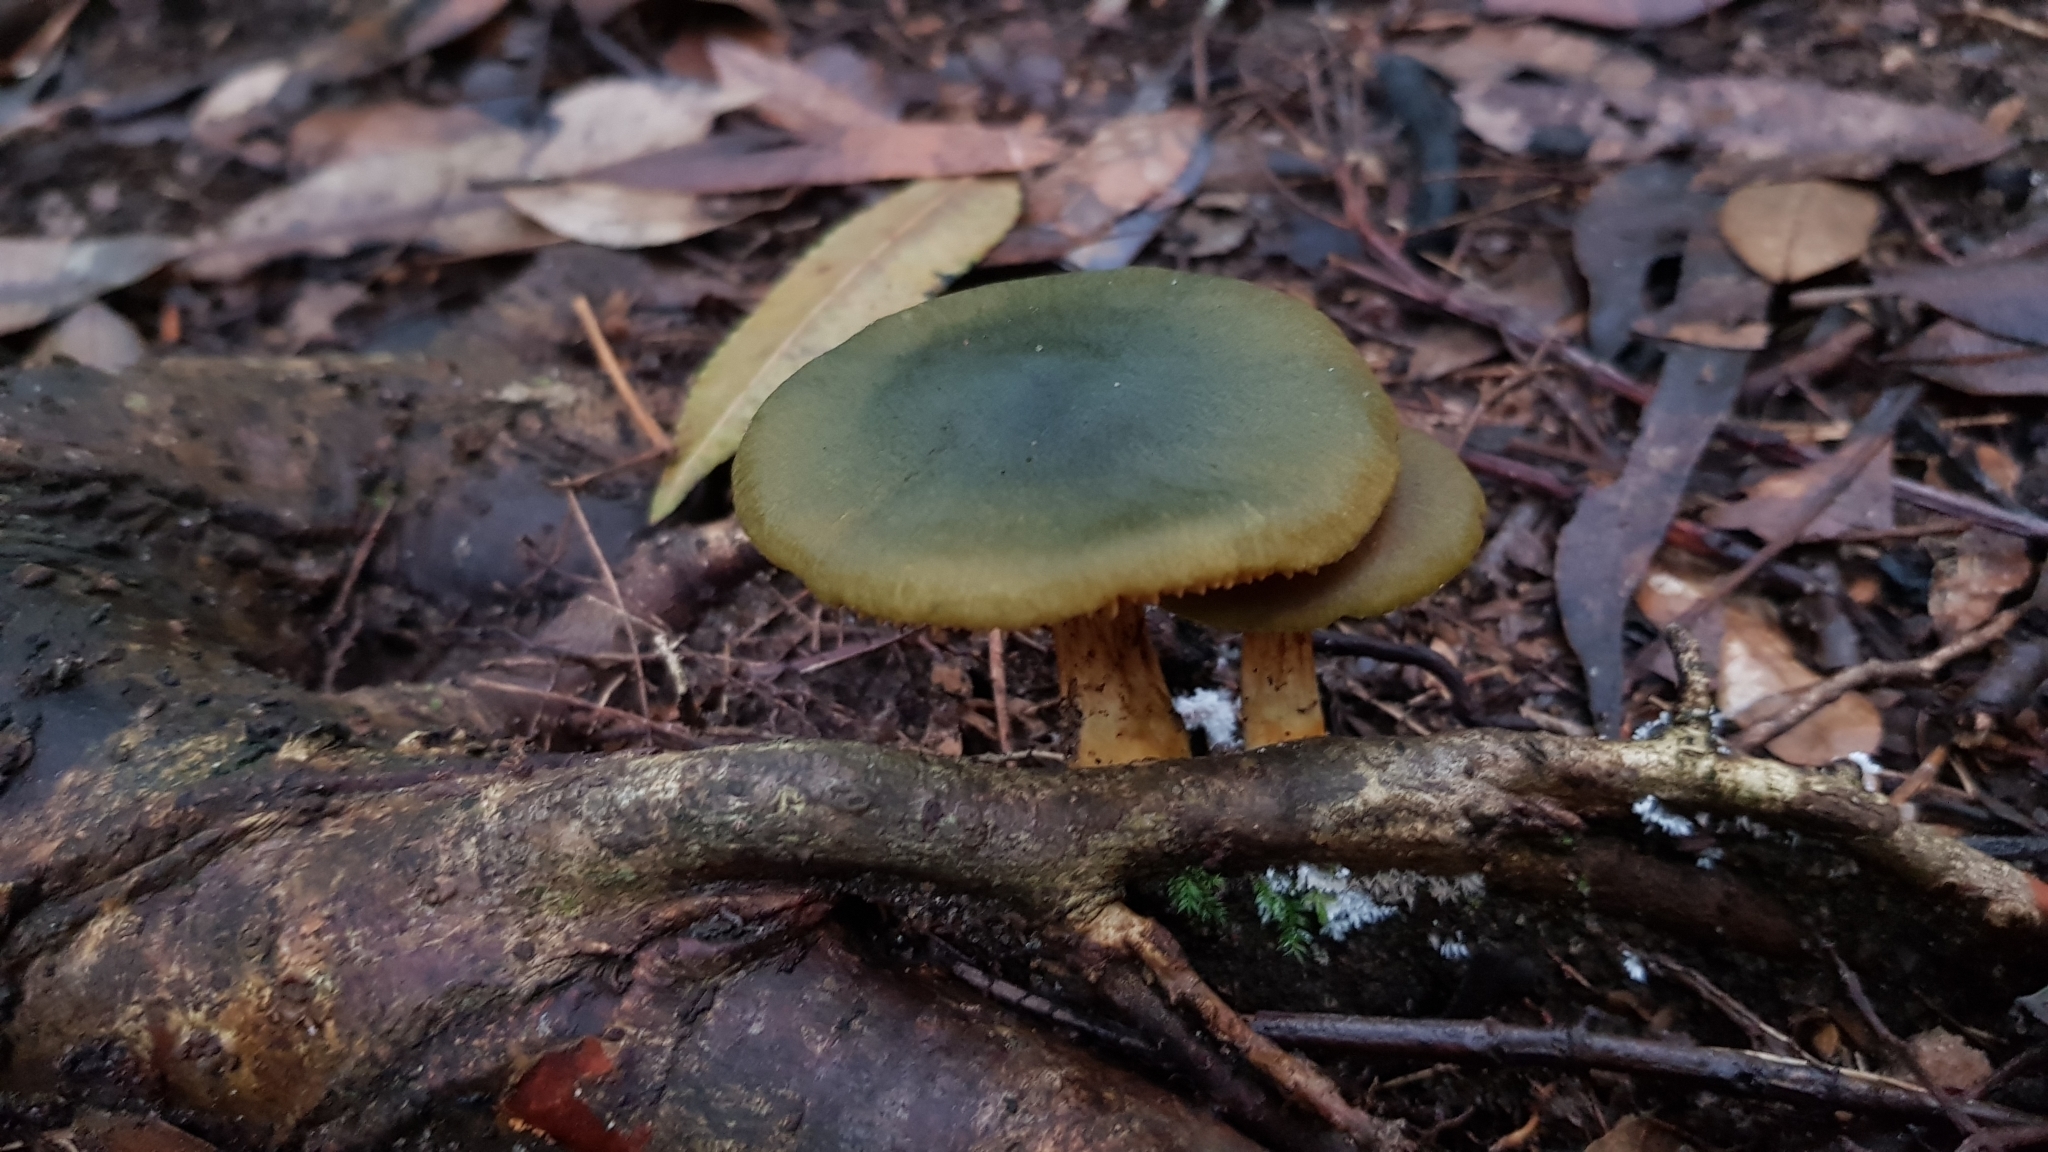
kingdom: Fungi
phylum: Basidiomycota
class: Agaricomycetes
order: Agaricales
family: Cortinariaceae
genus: Cortinarius
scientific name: Cortinarius austrovenetus
